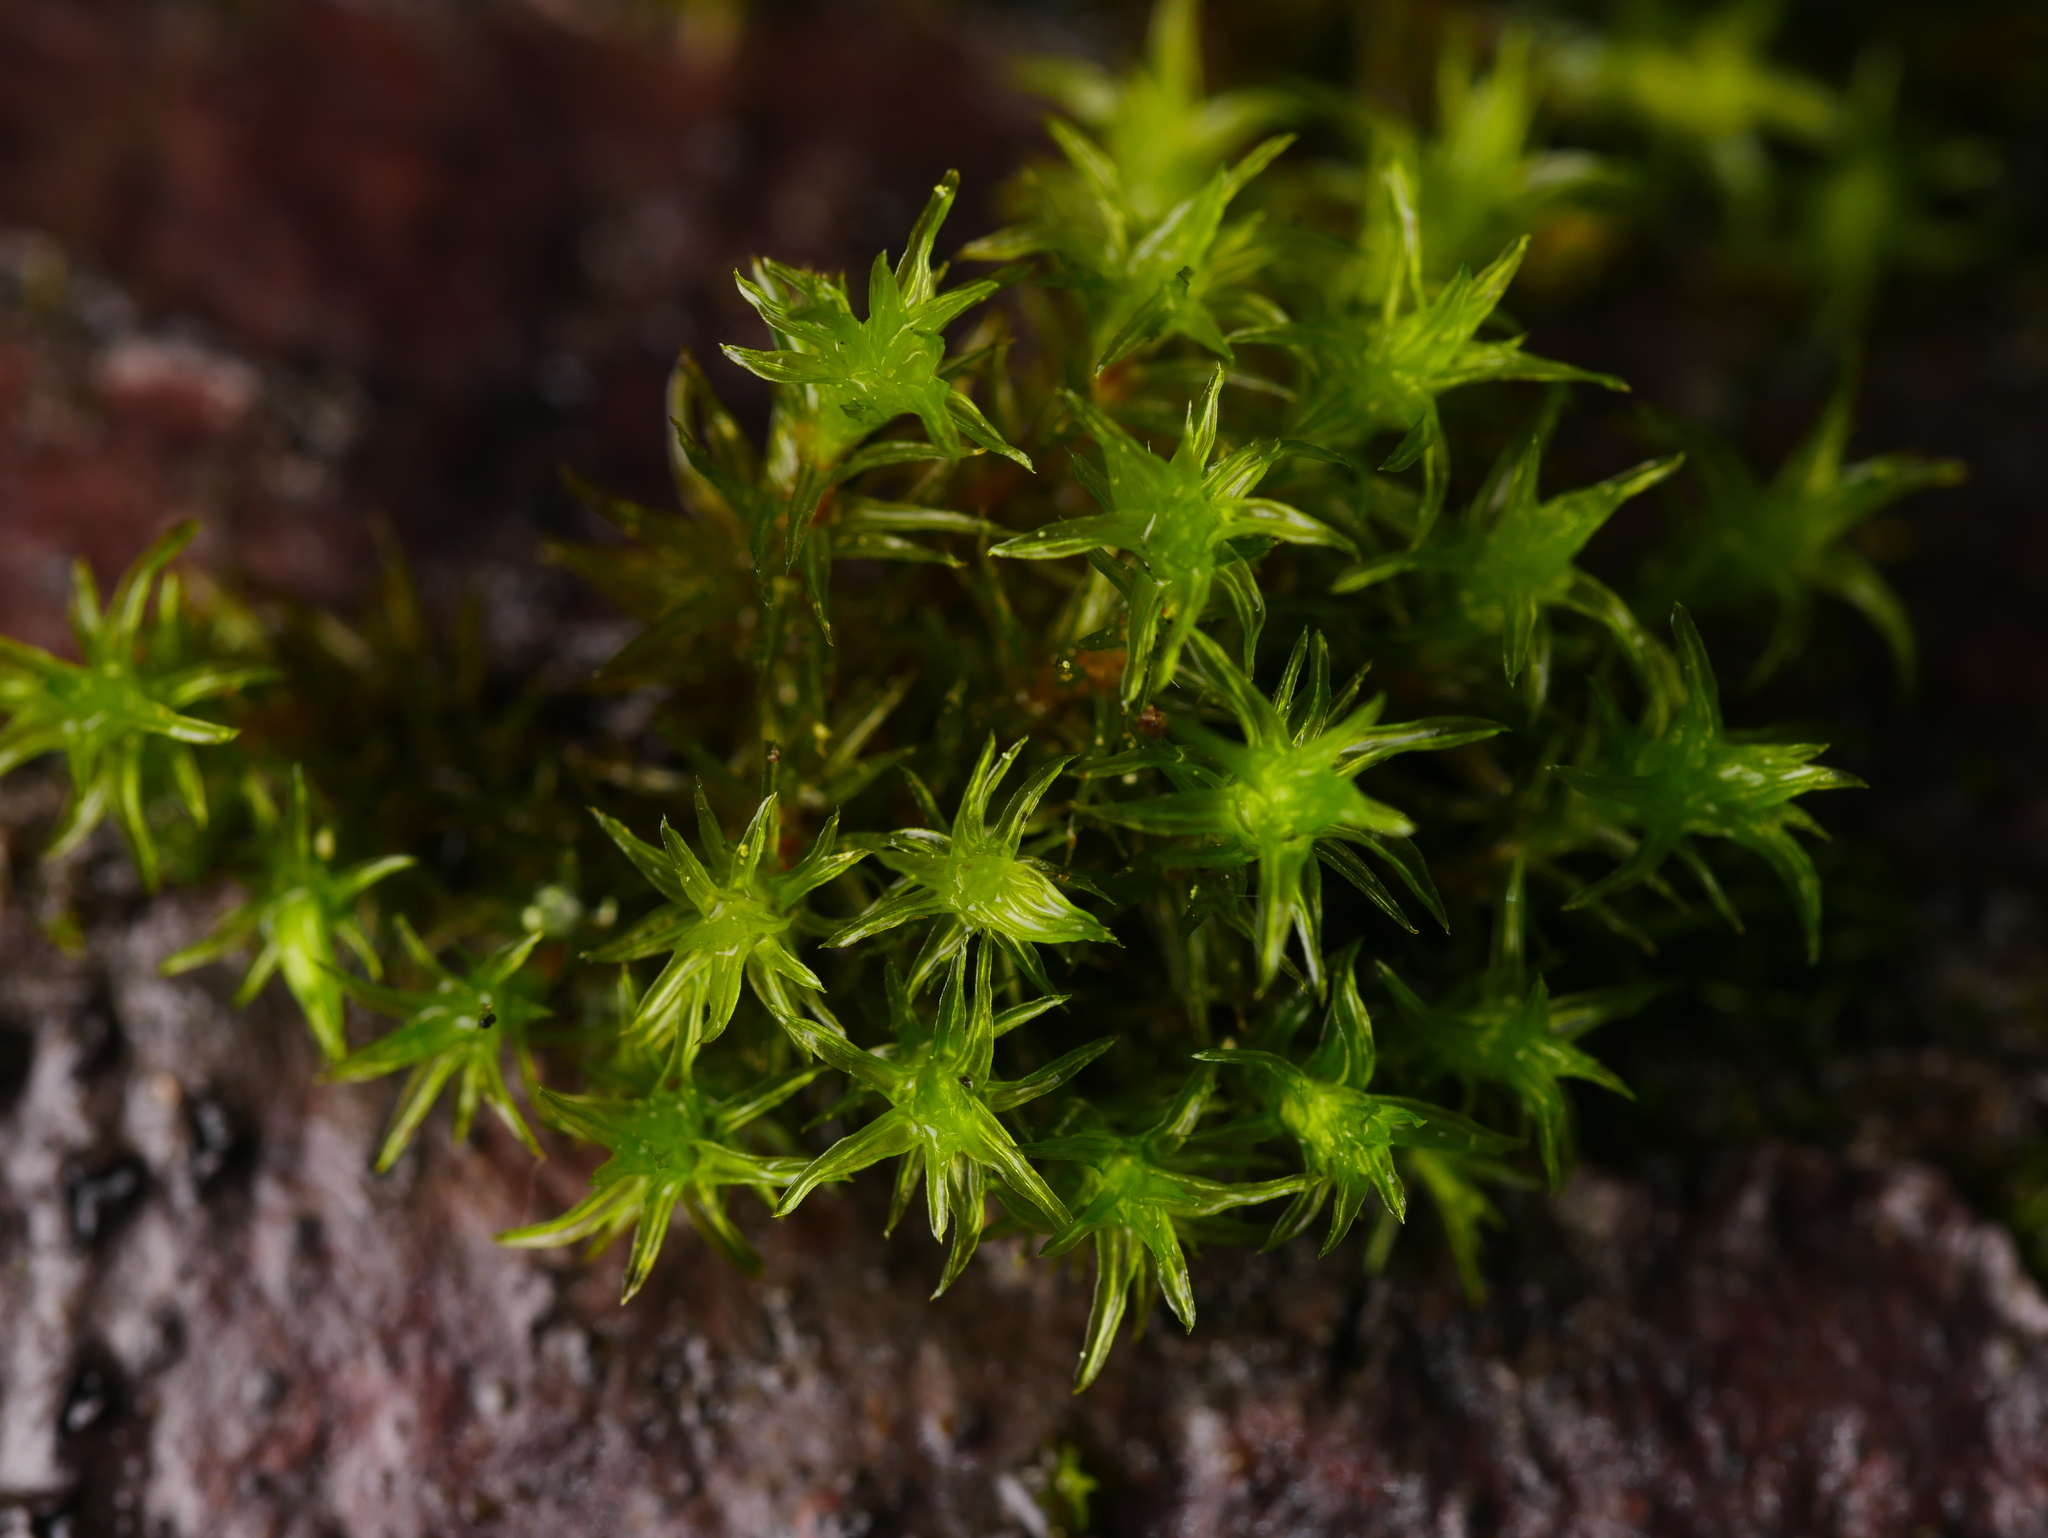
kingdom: Plantae
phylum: Bryophyta
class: Bryopsida
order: Orthotrichales
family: Orthotrichaceae
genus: Lewinskya
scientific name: Lewinskya affinis
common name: Wood bristle-moss
